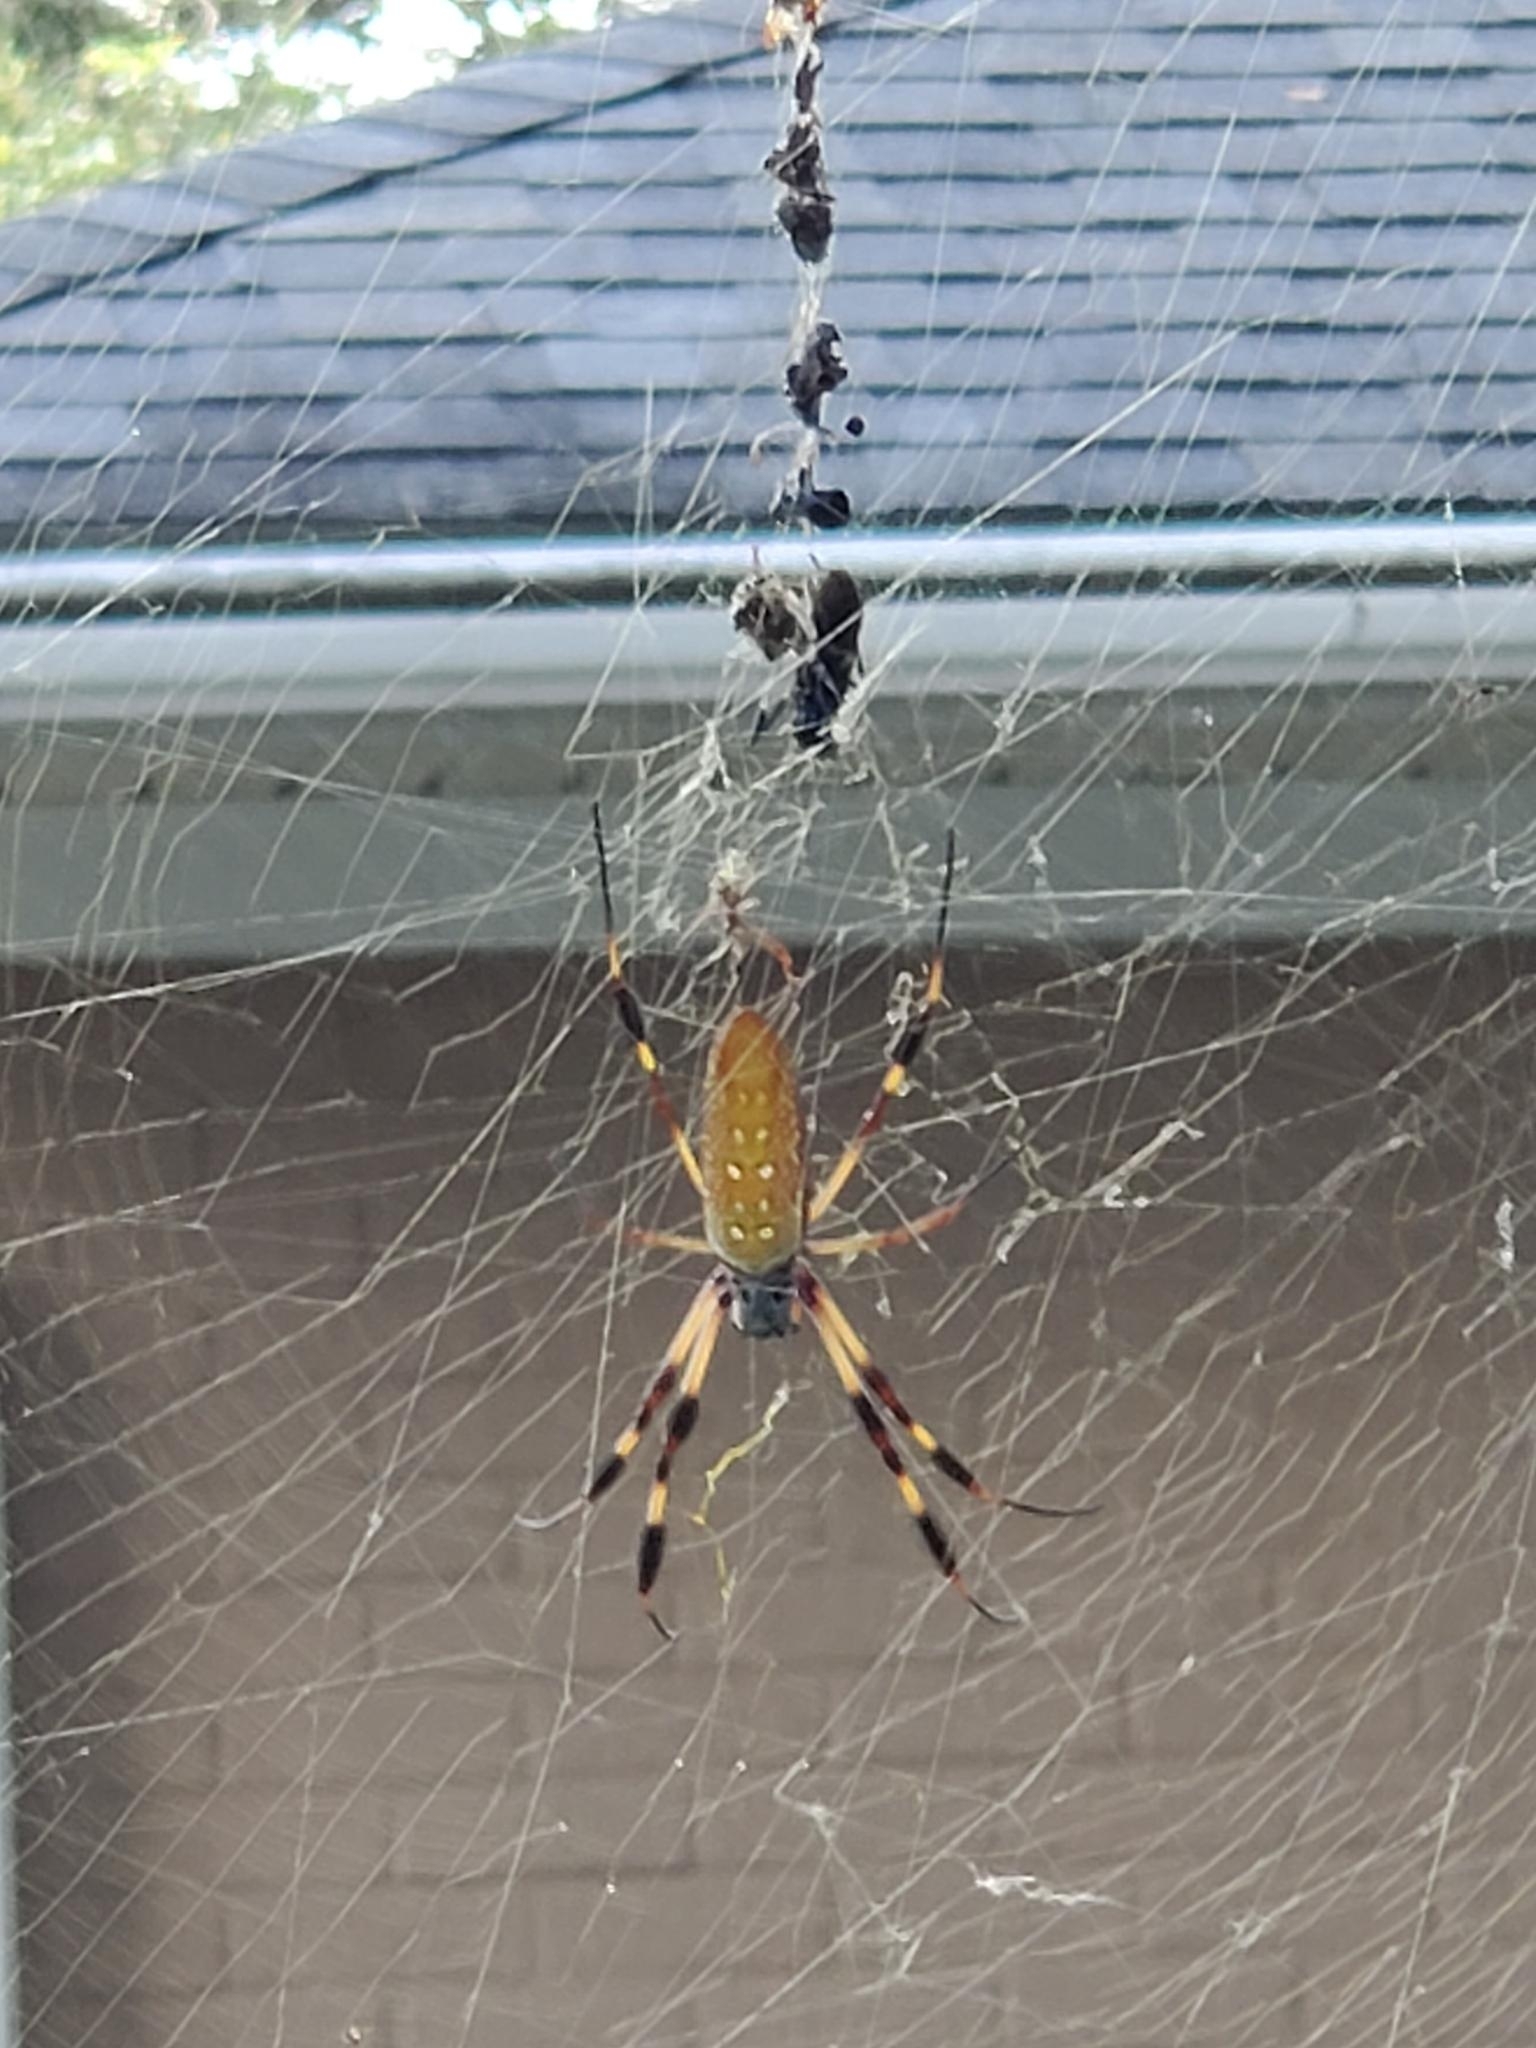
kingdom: Animalia
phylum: Arthropoda
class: Arachnida
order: Araneae
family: Araneidae
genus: Trichonephila
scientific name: Trichonephila clavipes
